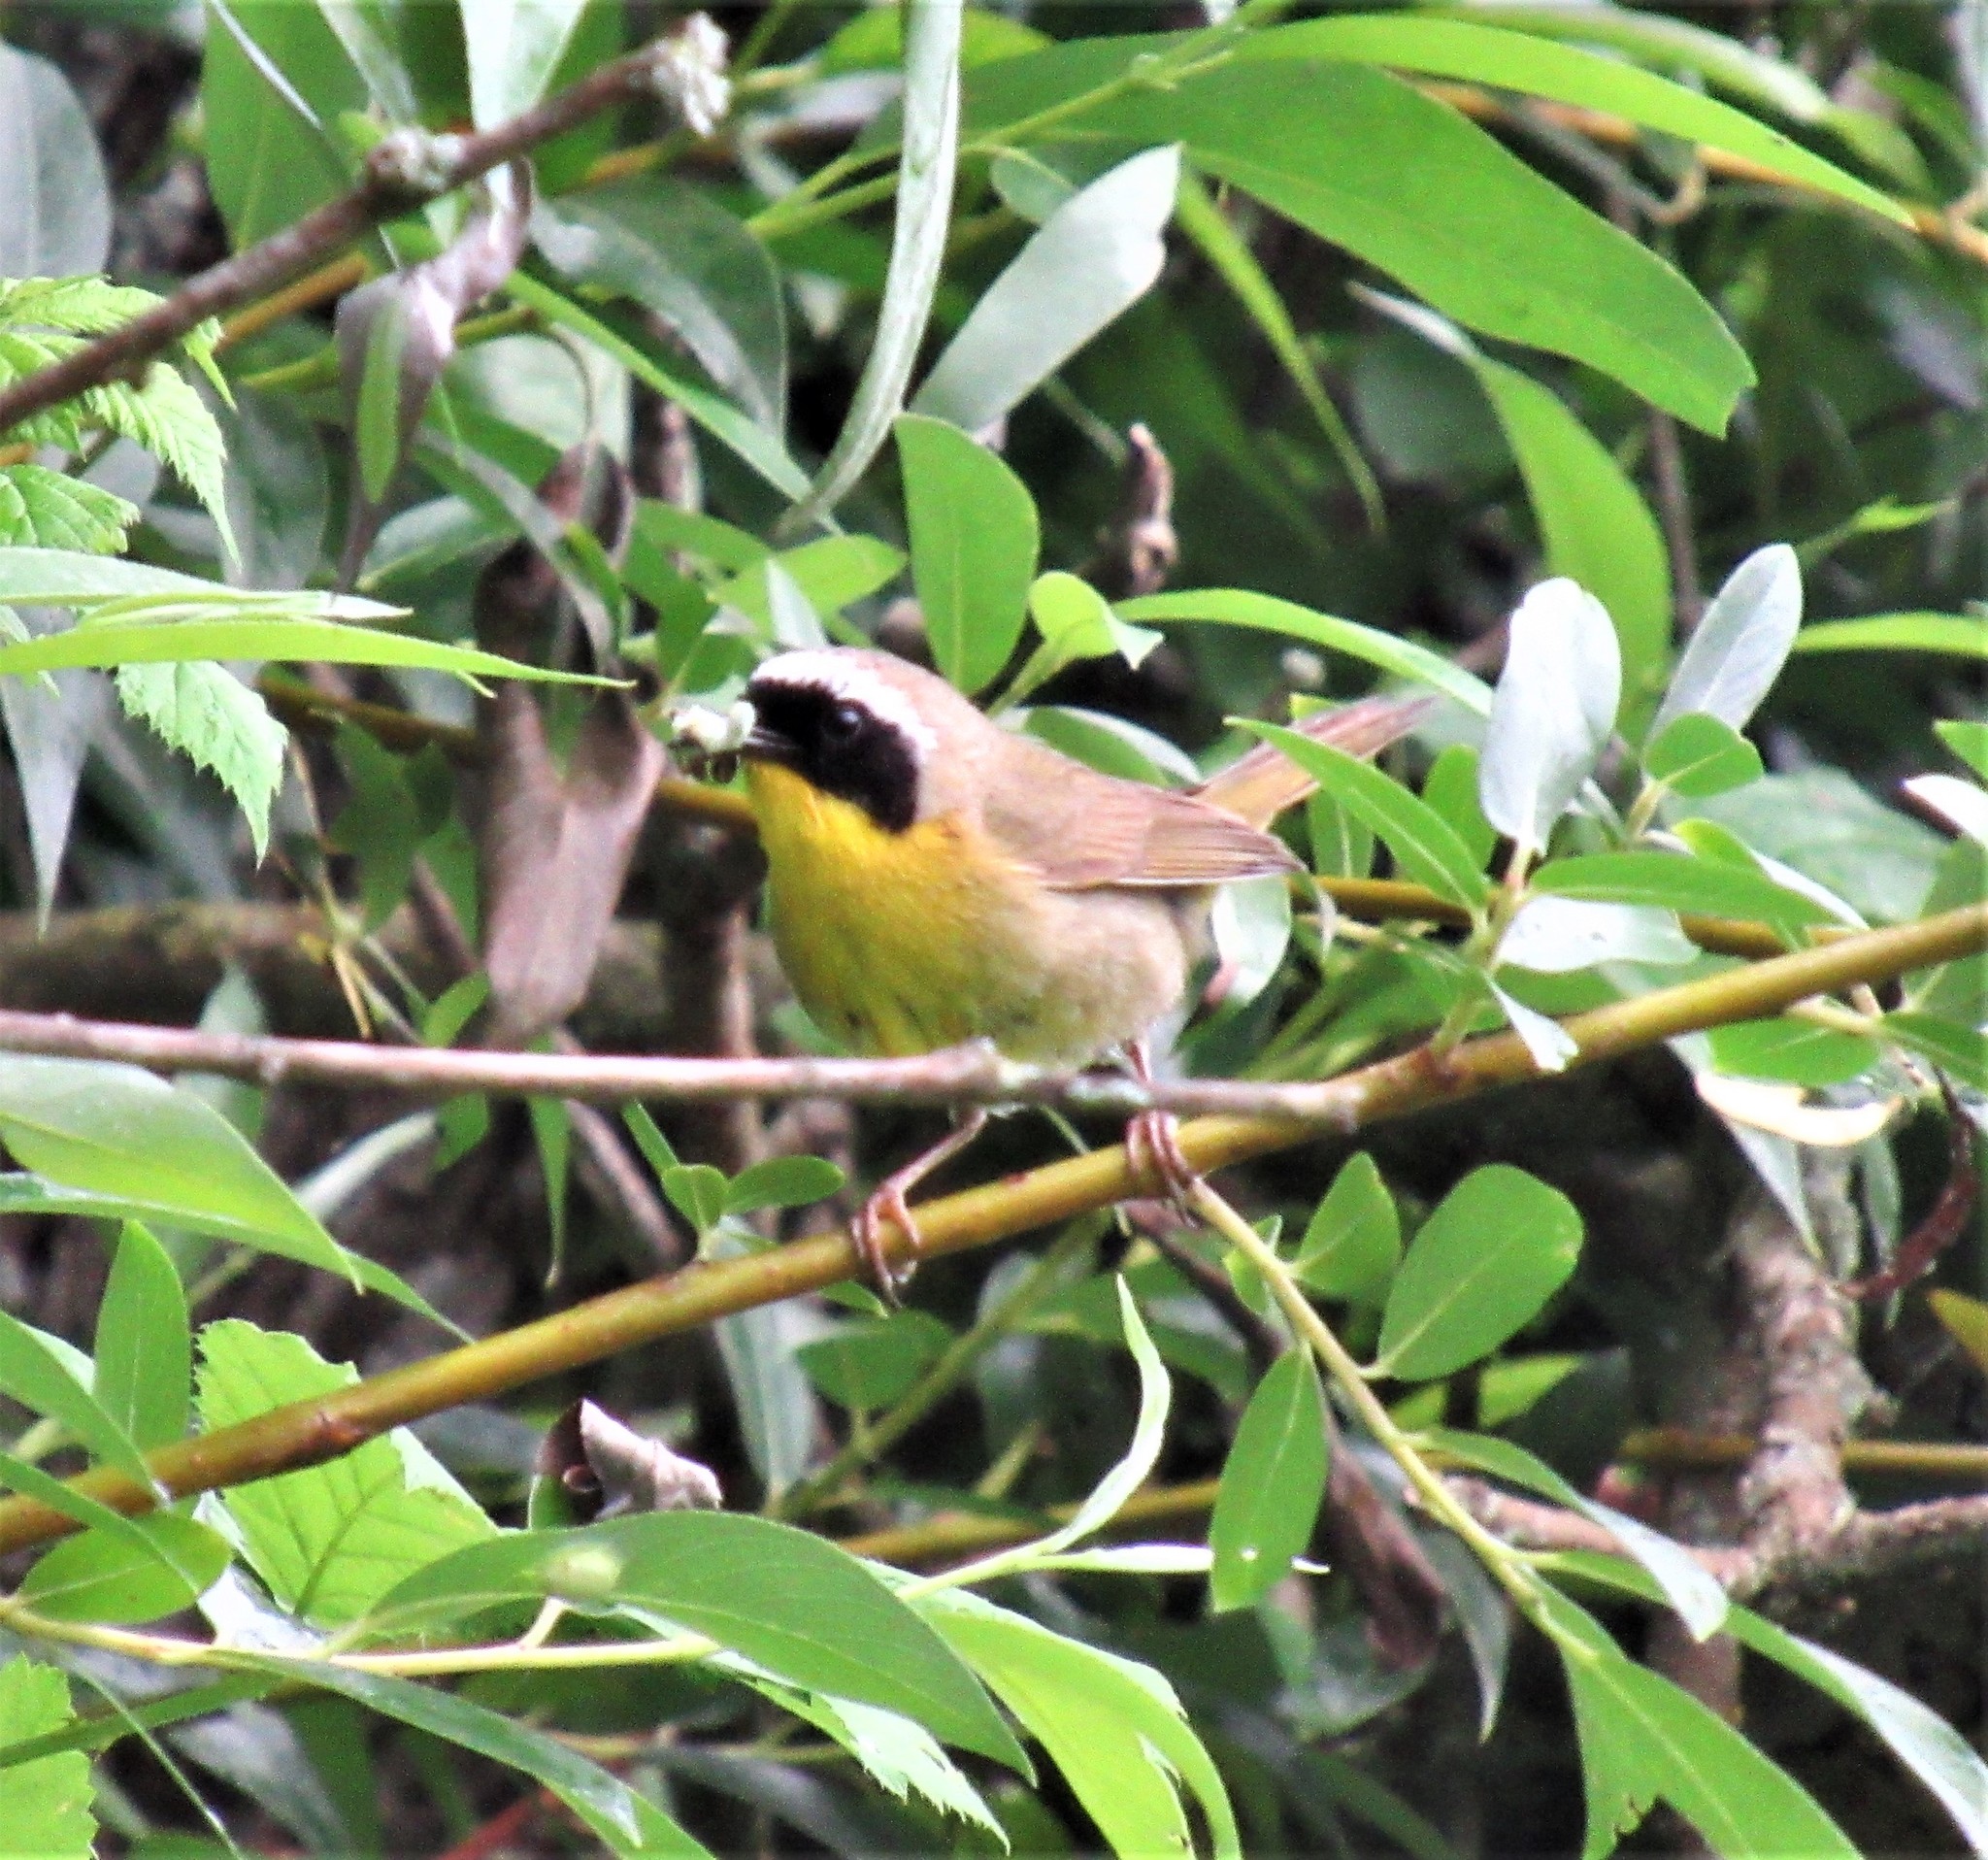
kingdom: Animalia
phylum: Chordata
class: Aves
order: Passeriformes
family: Parulidae
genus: Geothlypis
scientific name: Geothlypis trichas
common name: Common yellowthroat
